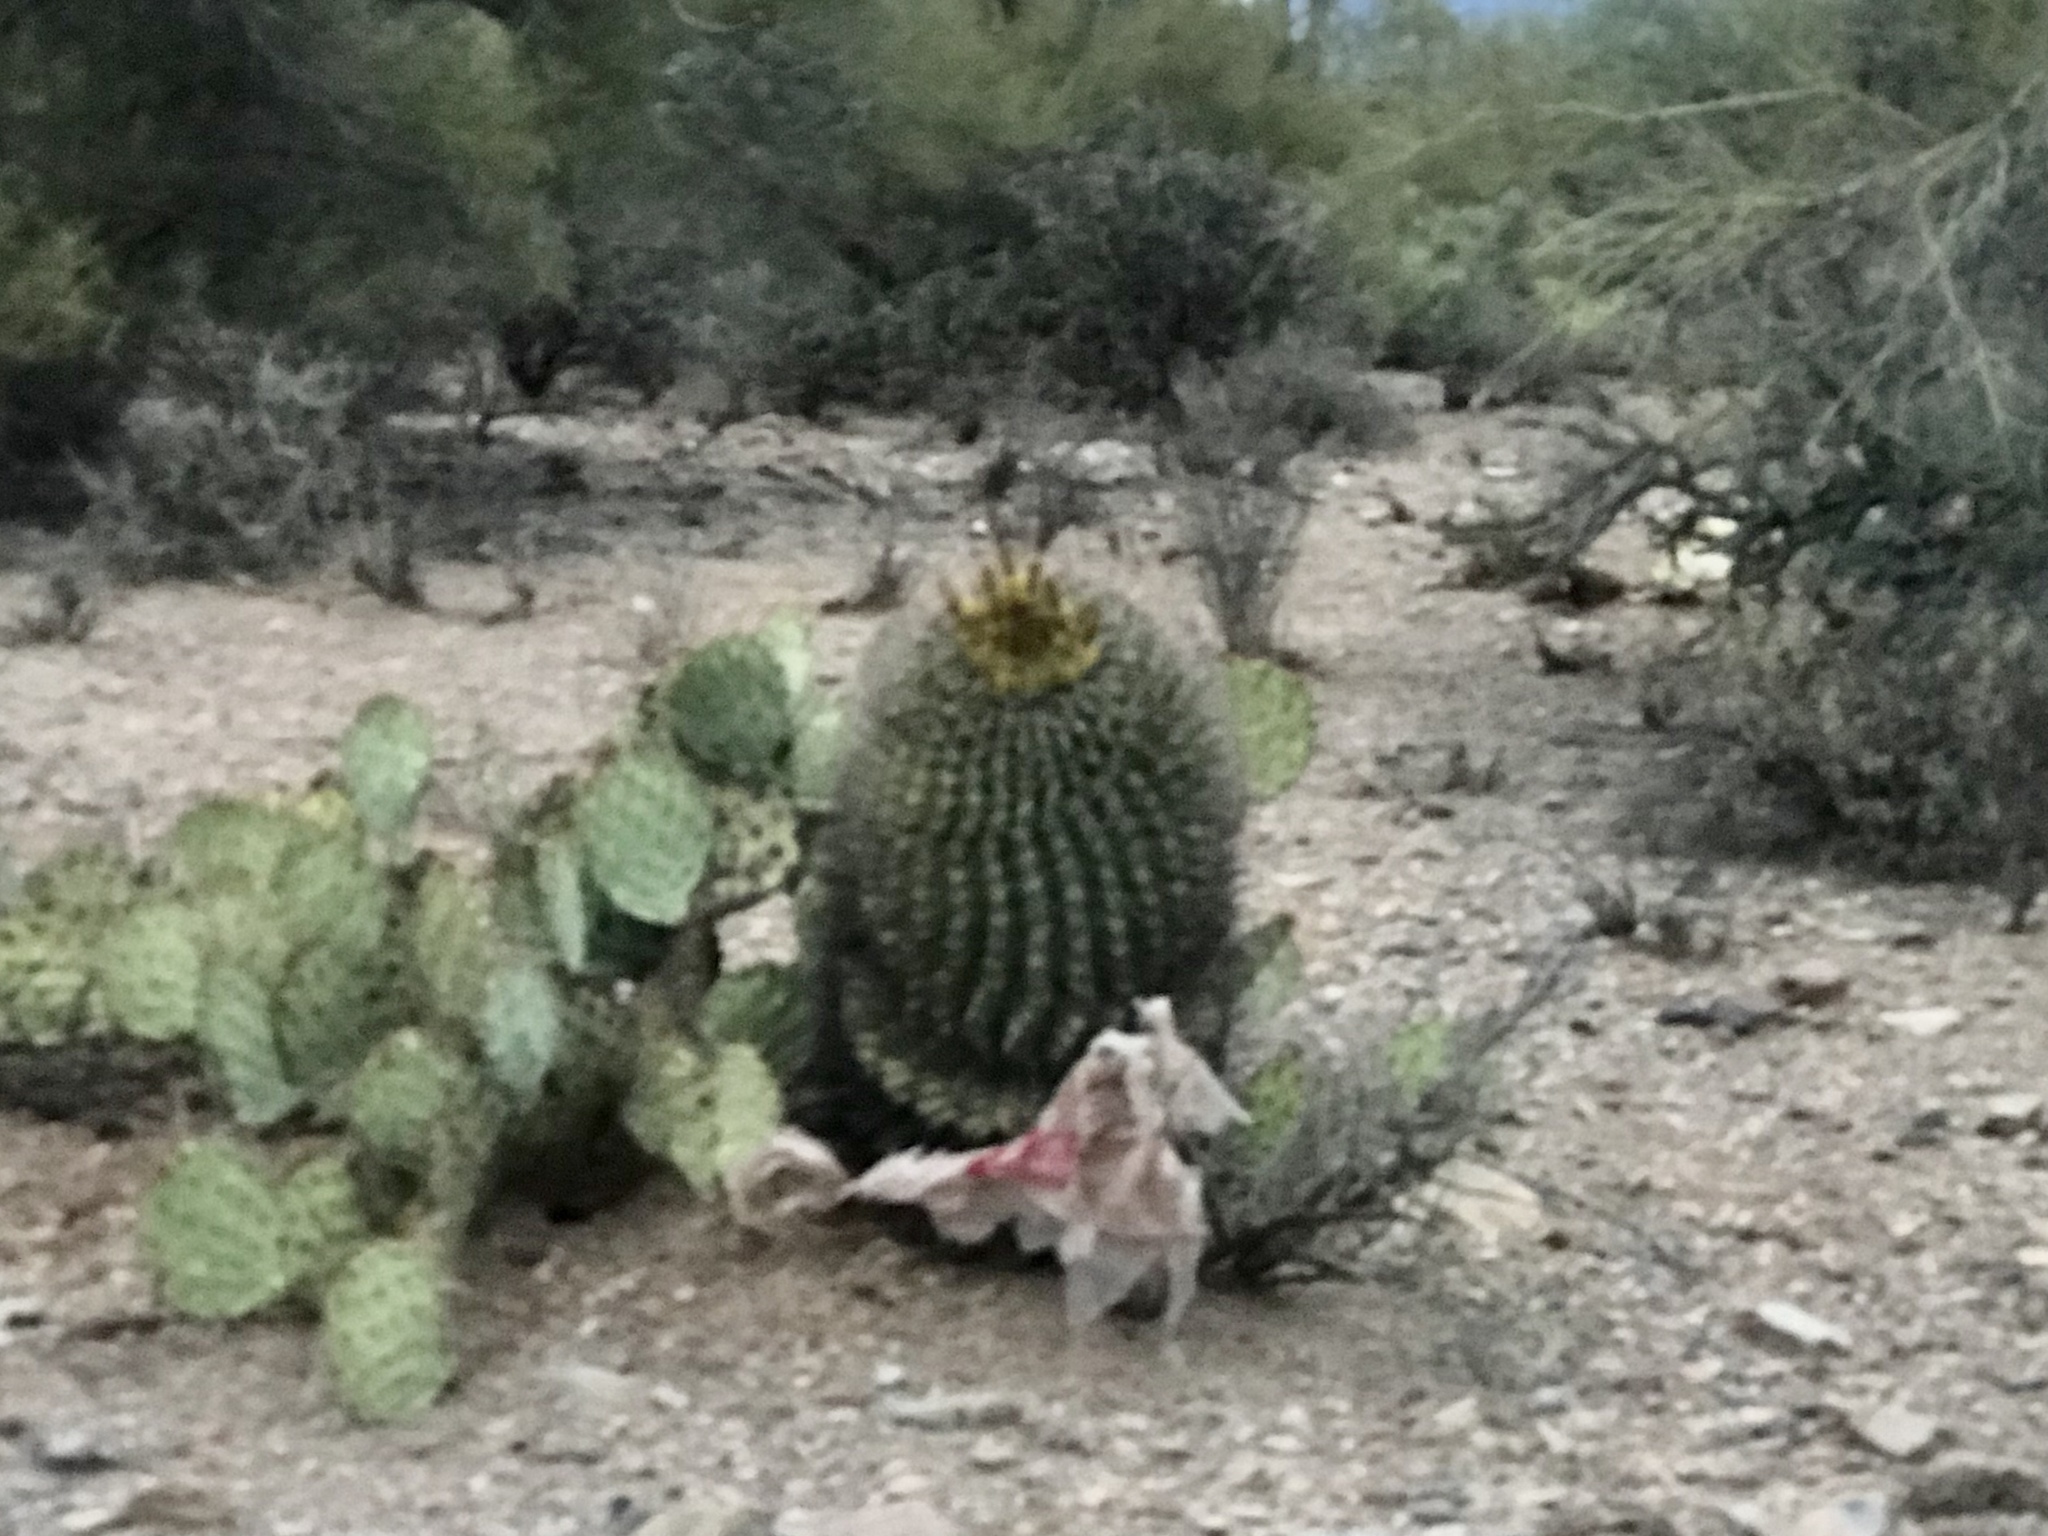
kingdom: Plantae
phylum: Tracheophyta
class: Magnoliopsida
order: Caryophyllales
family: Cactaceae
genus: Ferocactus
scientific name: Ferocactus wislizeni
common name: Candy barrel cactus
